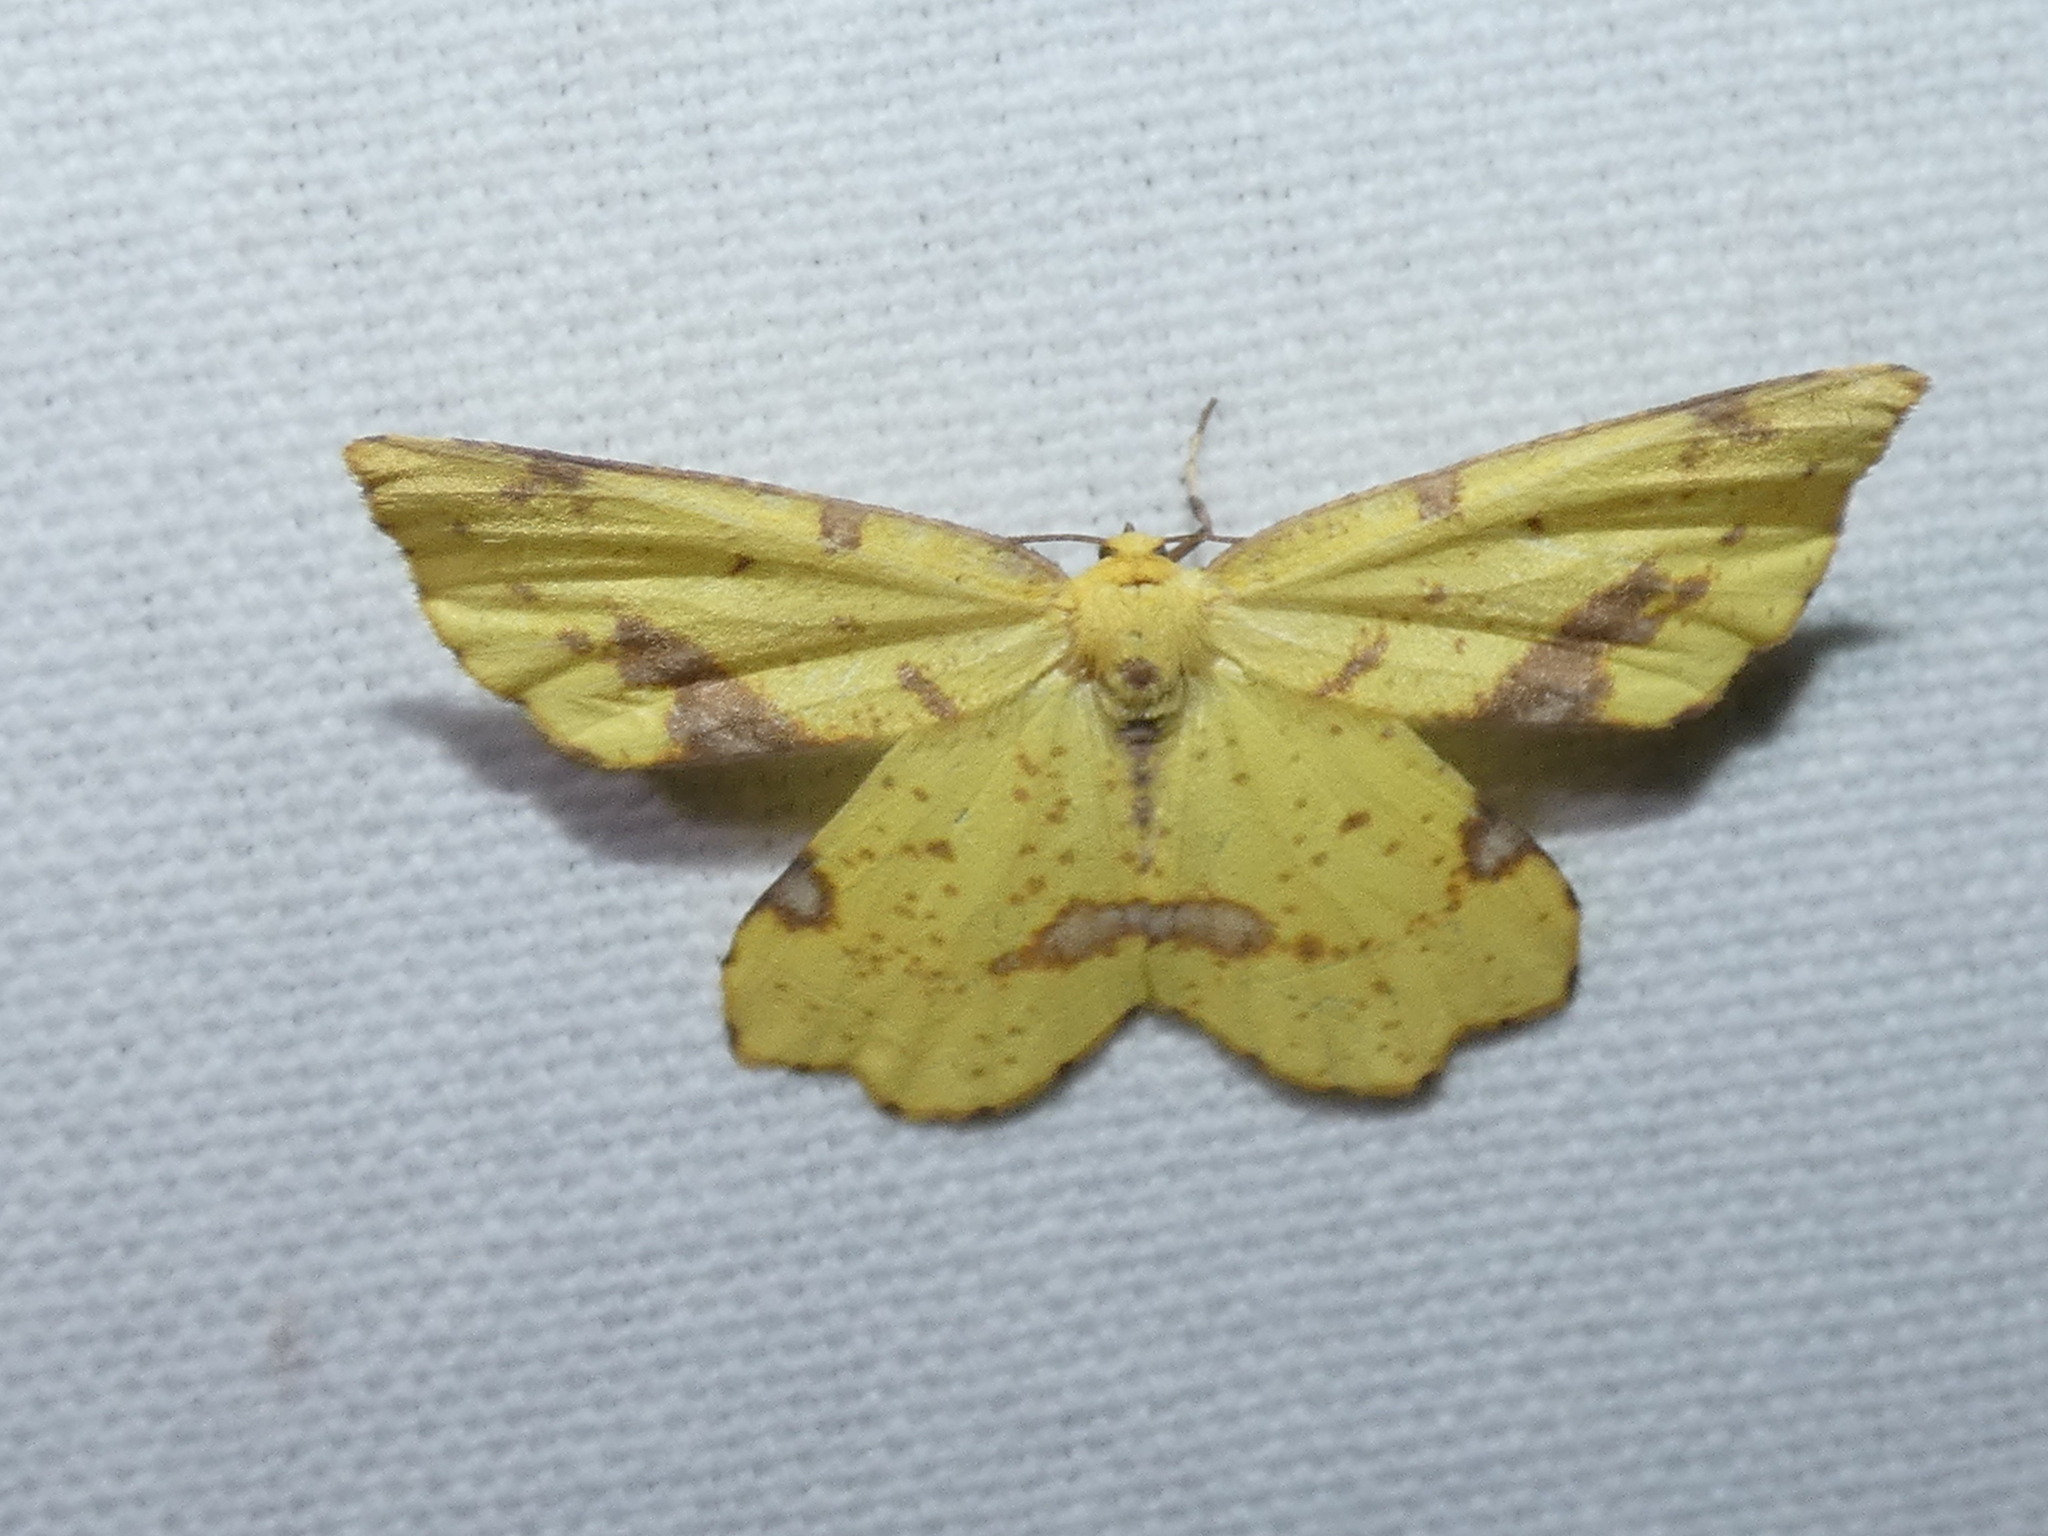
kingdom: Animalia
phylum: Arthropoda
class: Insecta
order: Lepidoptera
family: Geometridae
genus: Xanthotype
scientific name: Xanthotype
